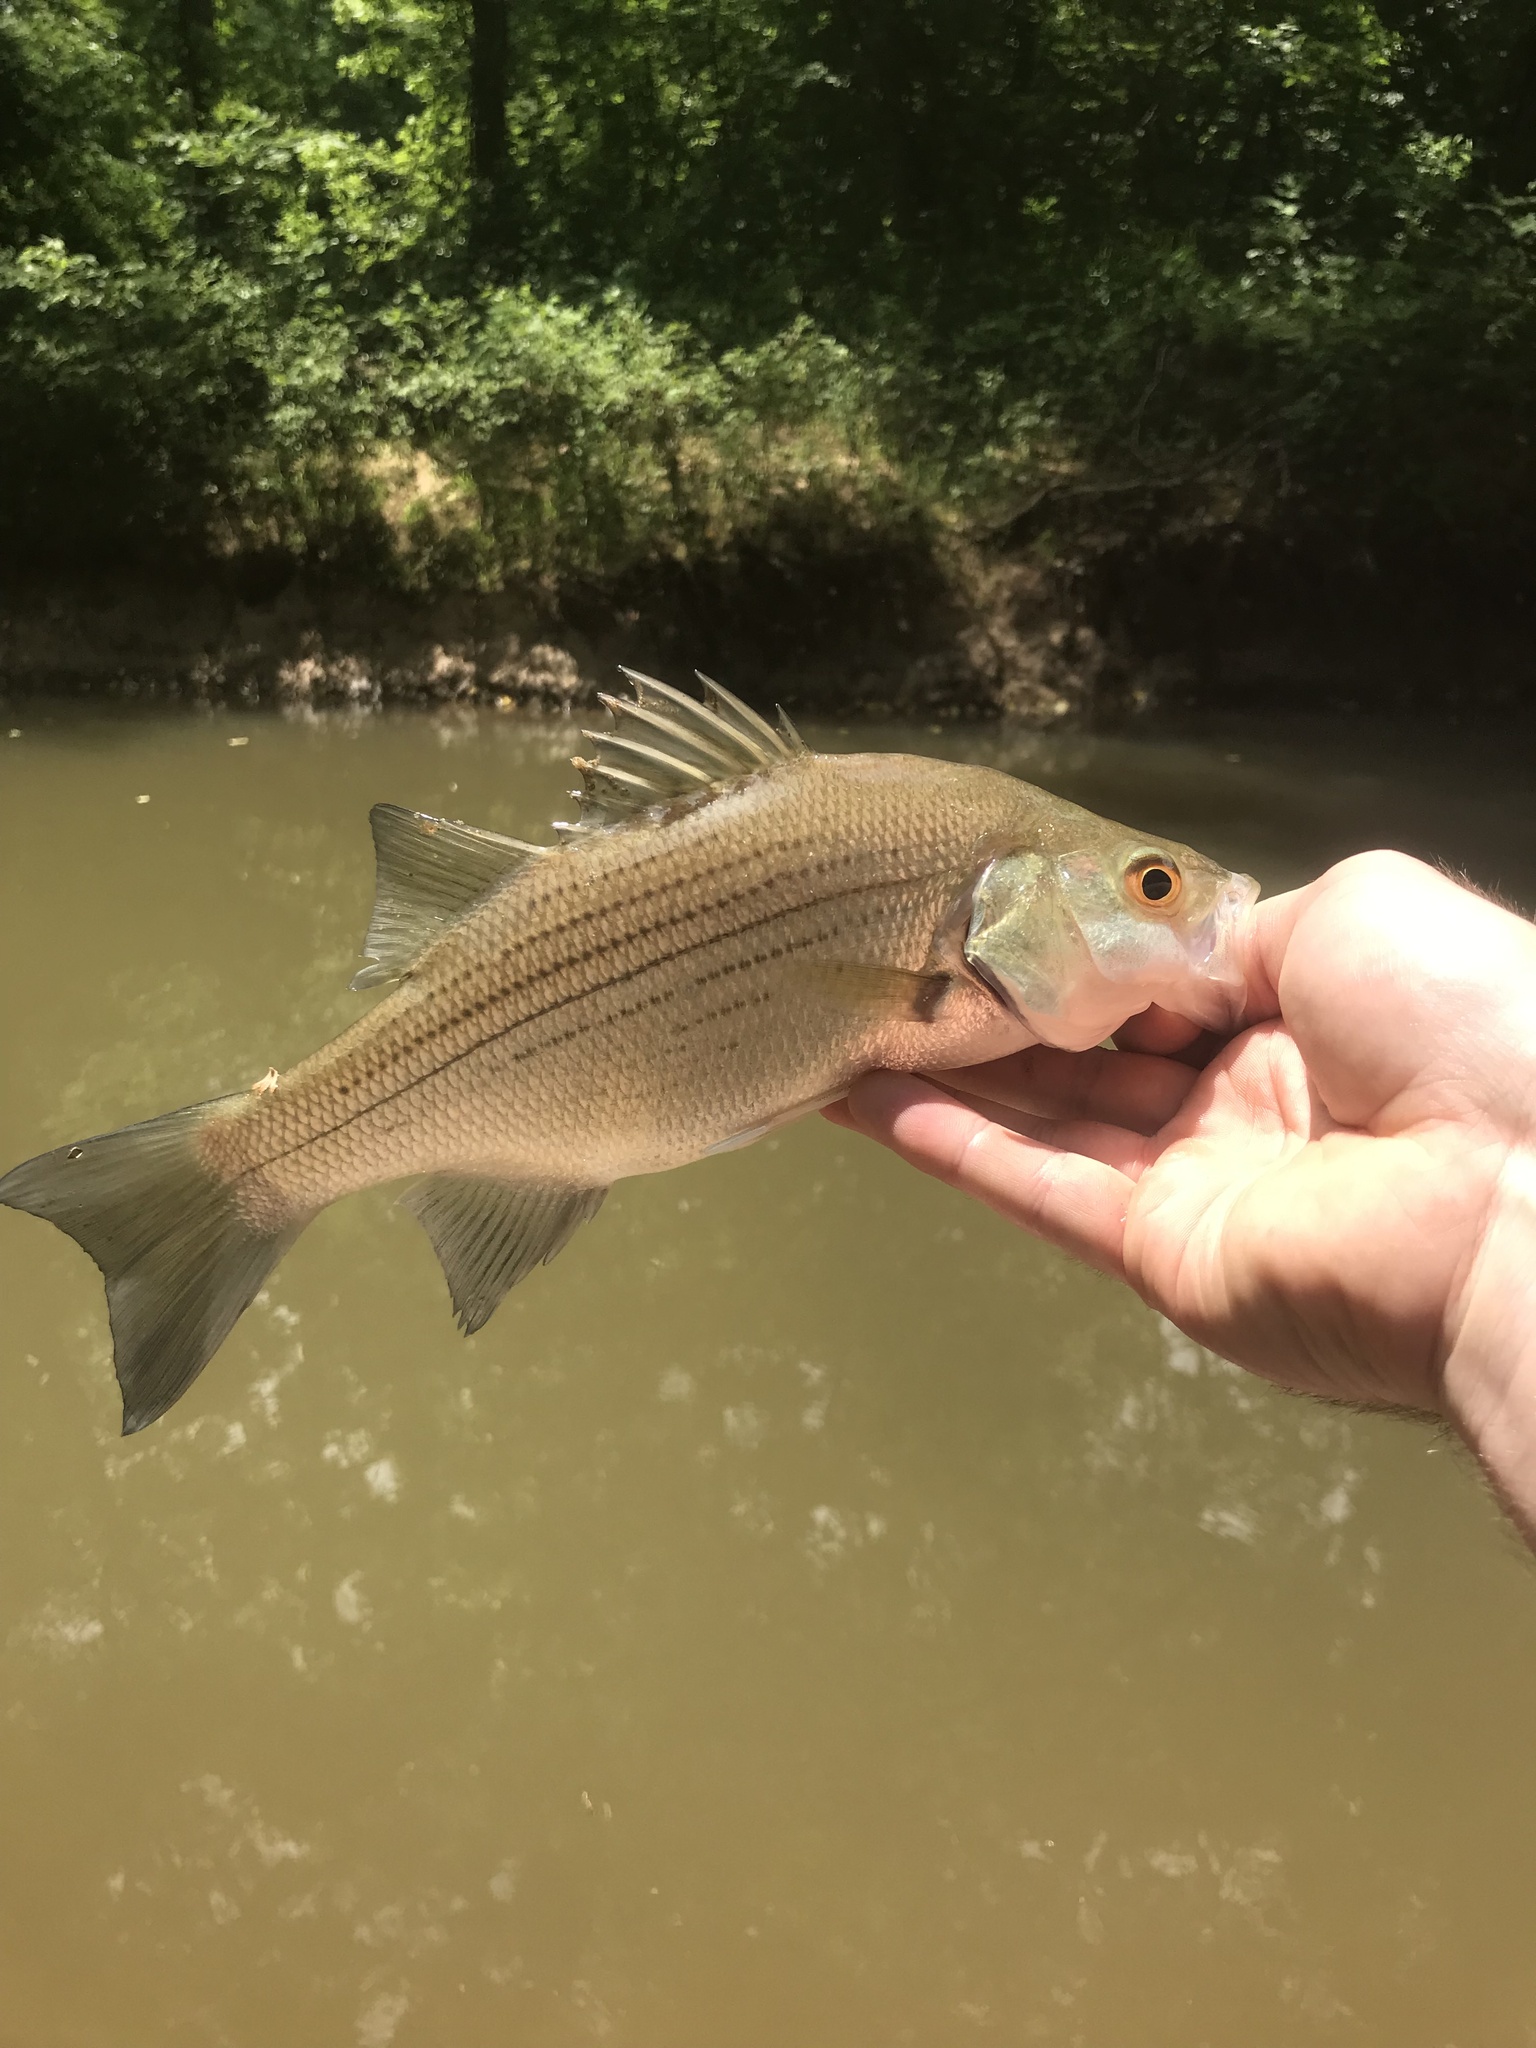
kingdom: Animalia
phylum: Chordata
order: Perciformes
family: Moronidae
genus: Morone
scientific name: Morone chrysops
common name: White bass
